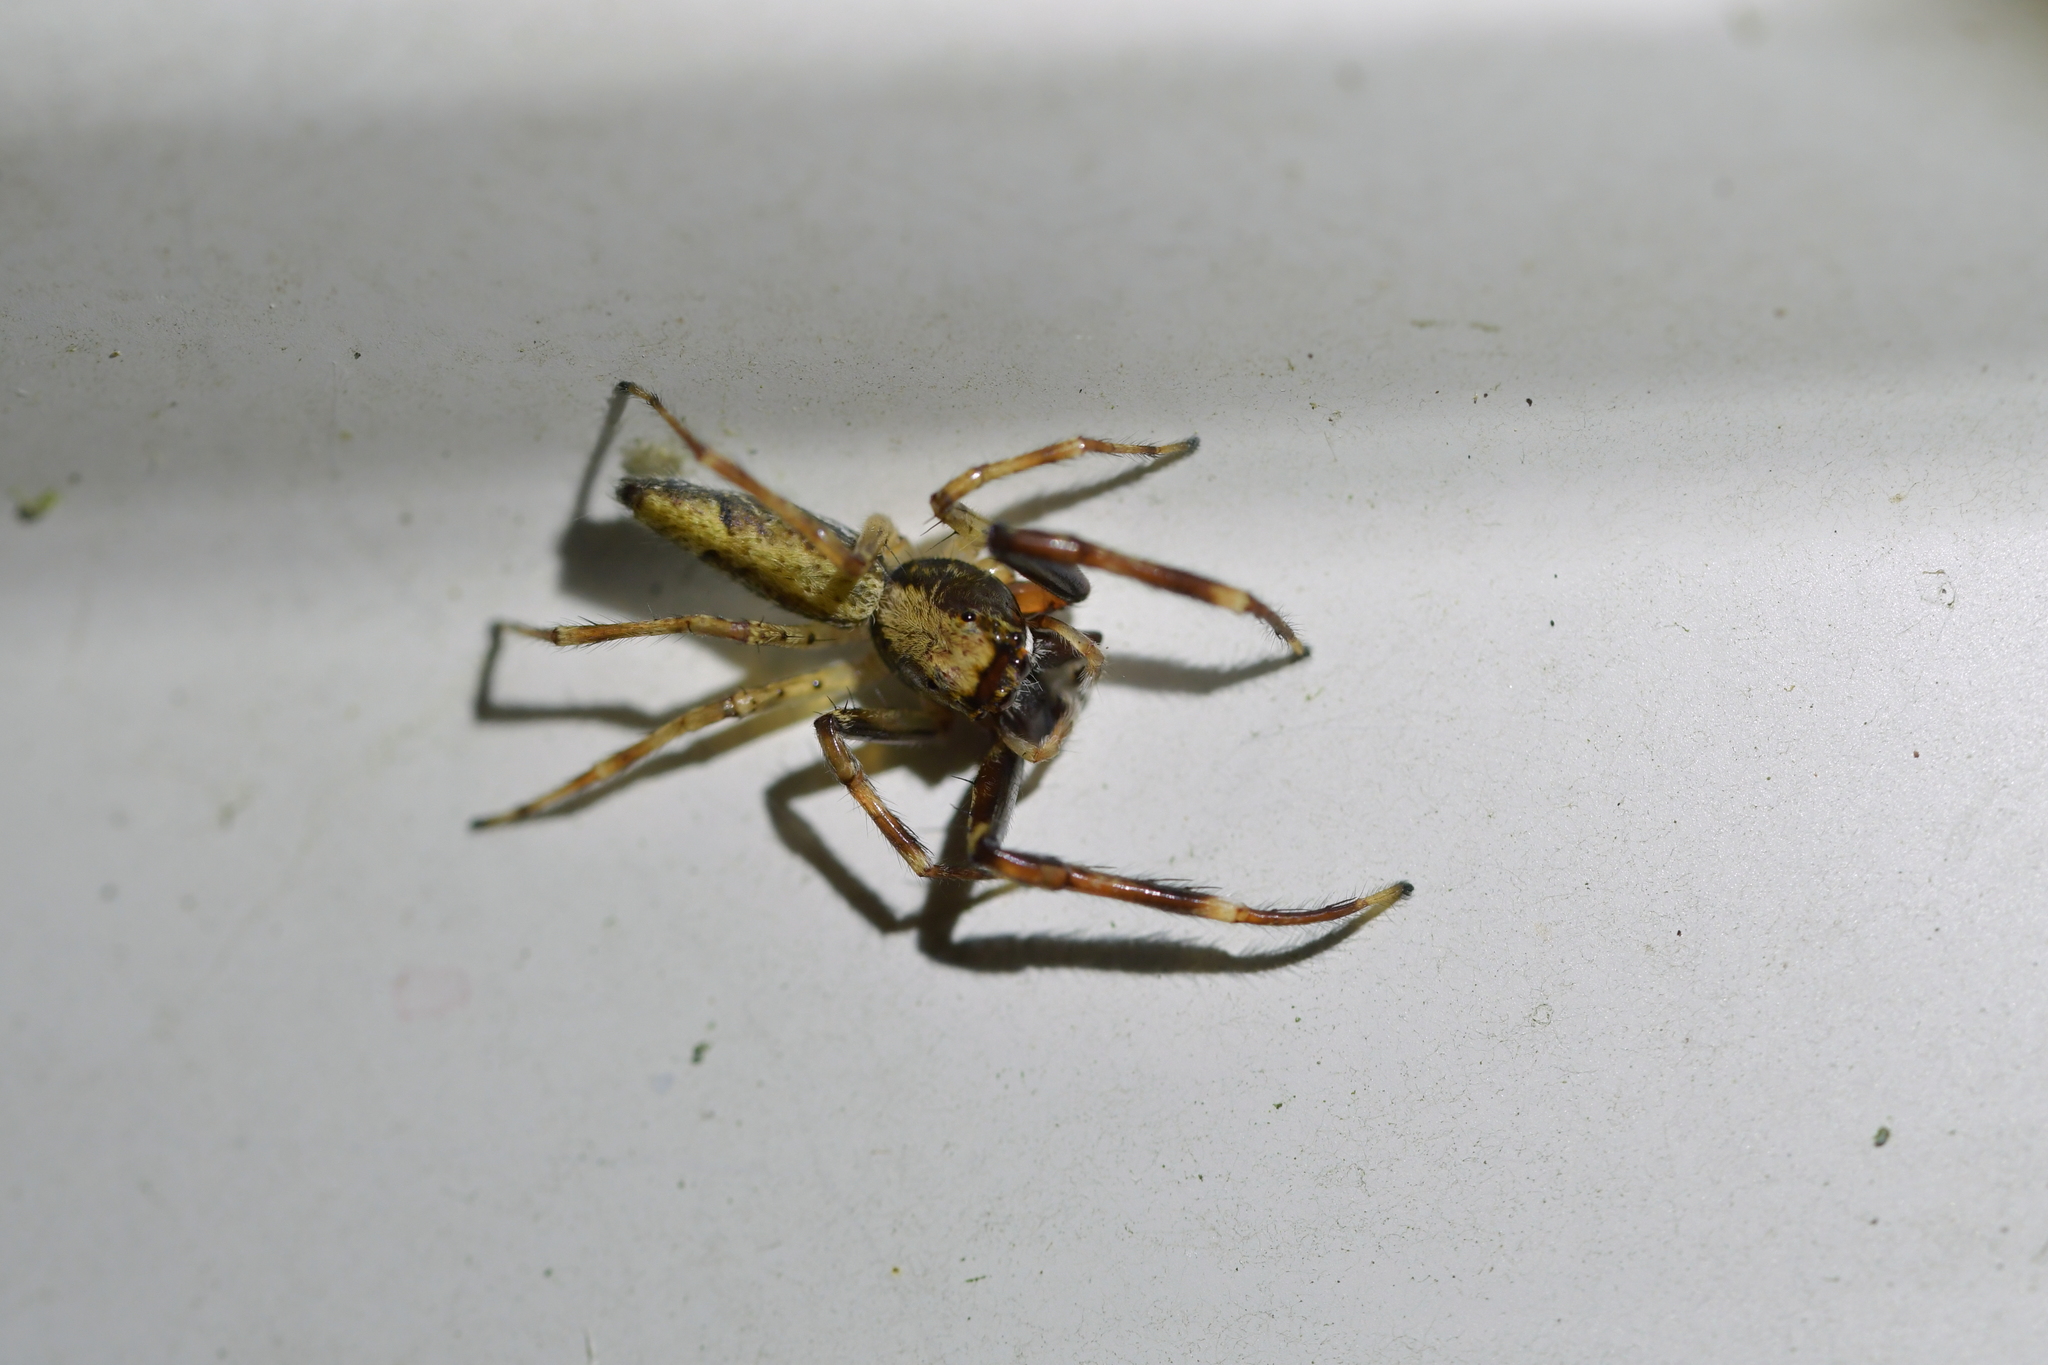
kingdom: Animalia
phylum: Arthropoda
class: Arachnida
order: Araneae
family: Salticidae
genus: Helpis
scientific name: Helpis minitabunda
